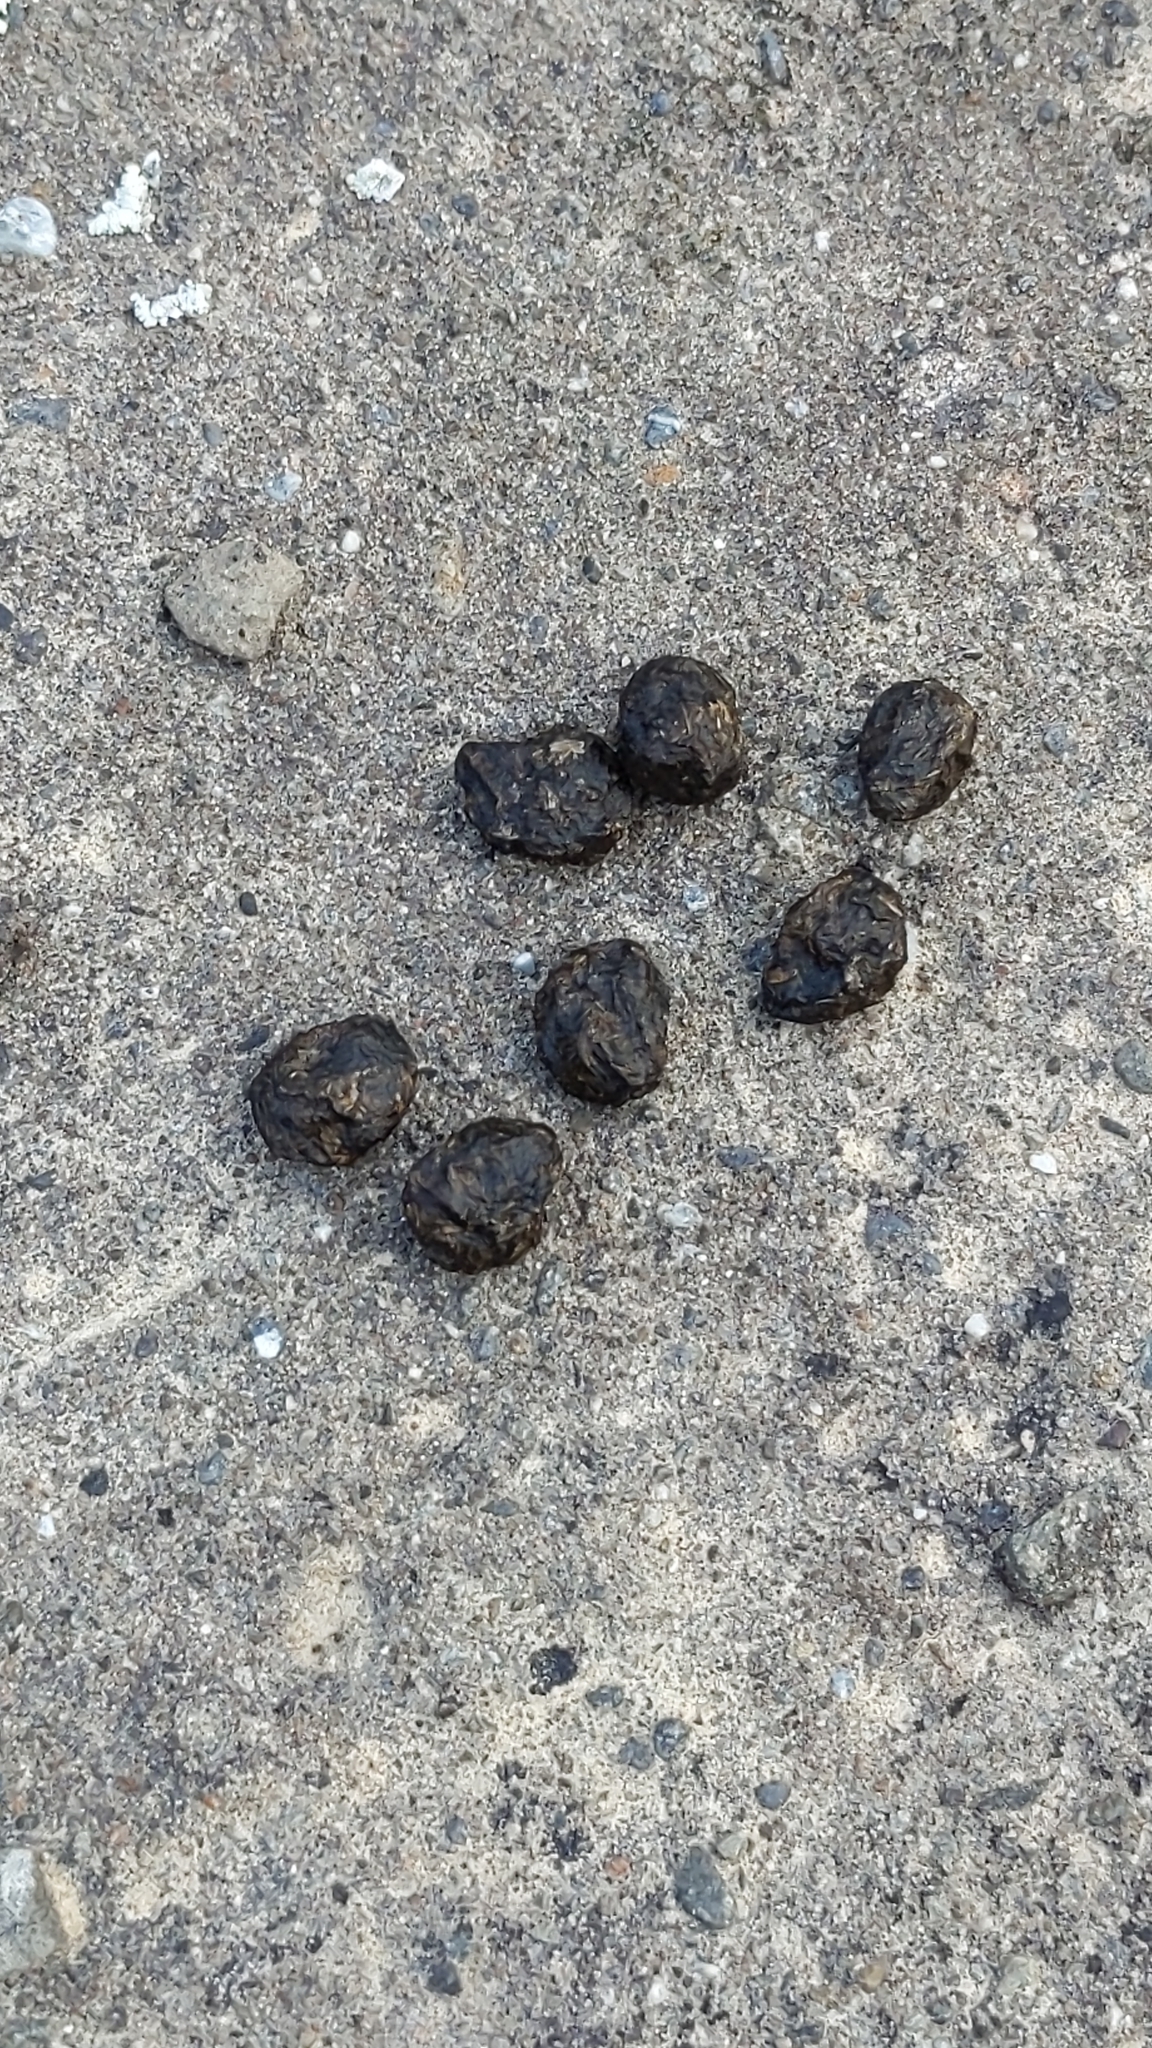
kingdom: Animalia
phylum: Chordata
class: Mammalia
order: Lagomorpha
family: Leporidae
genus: Oryctolagus
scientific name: Oryctolagus cuniculus
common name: European rabbit
